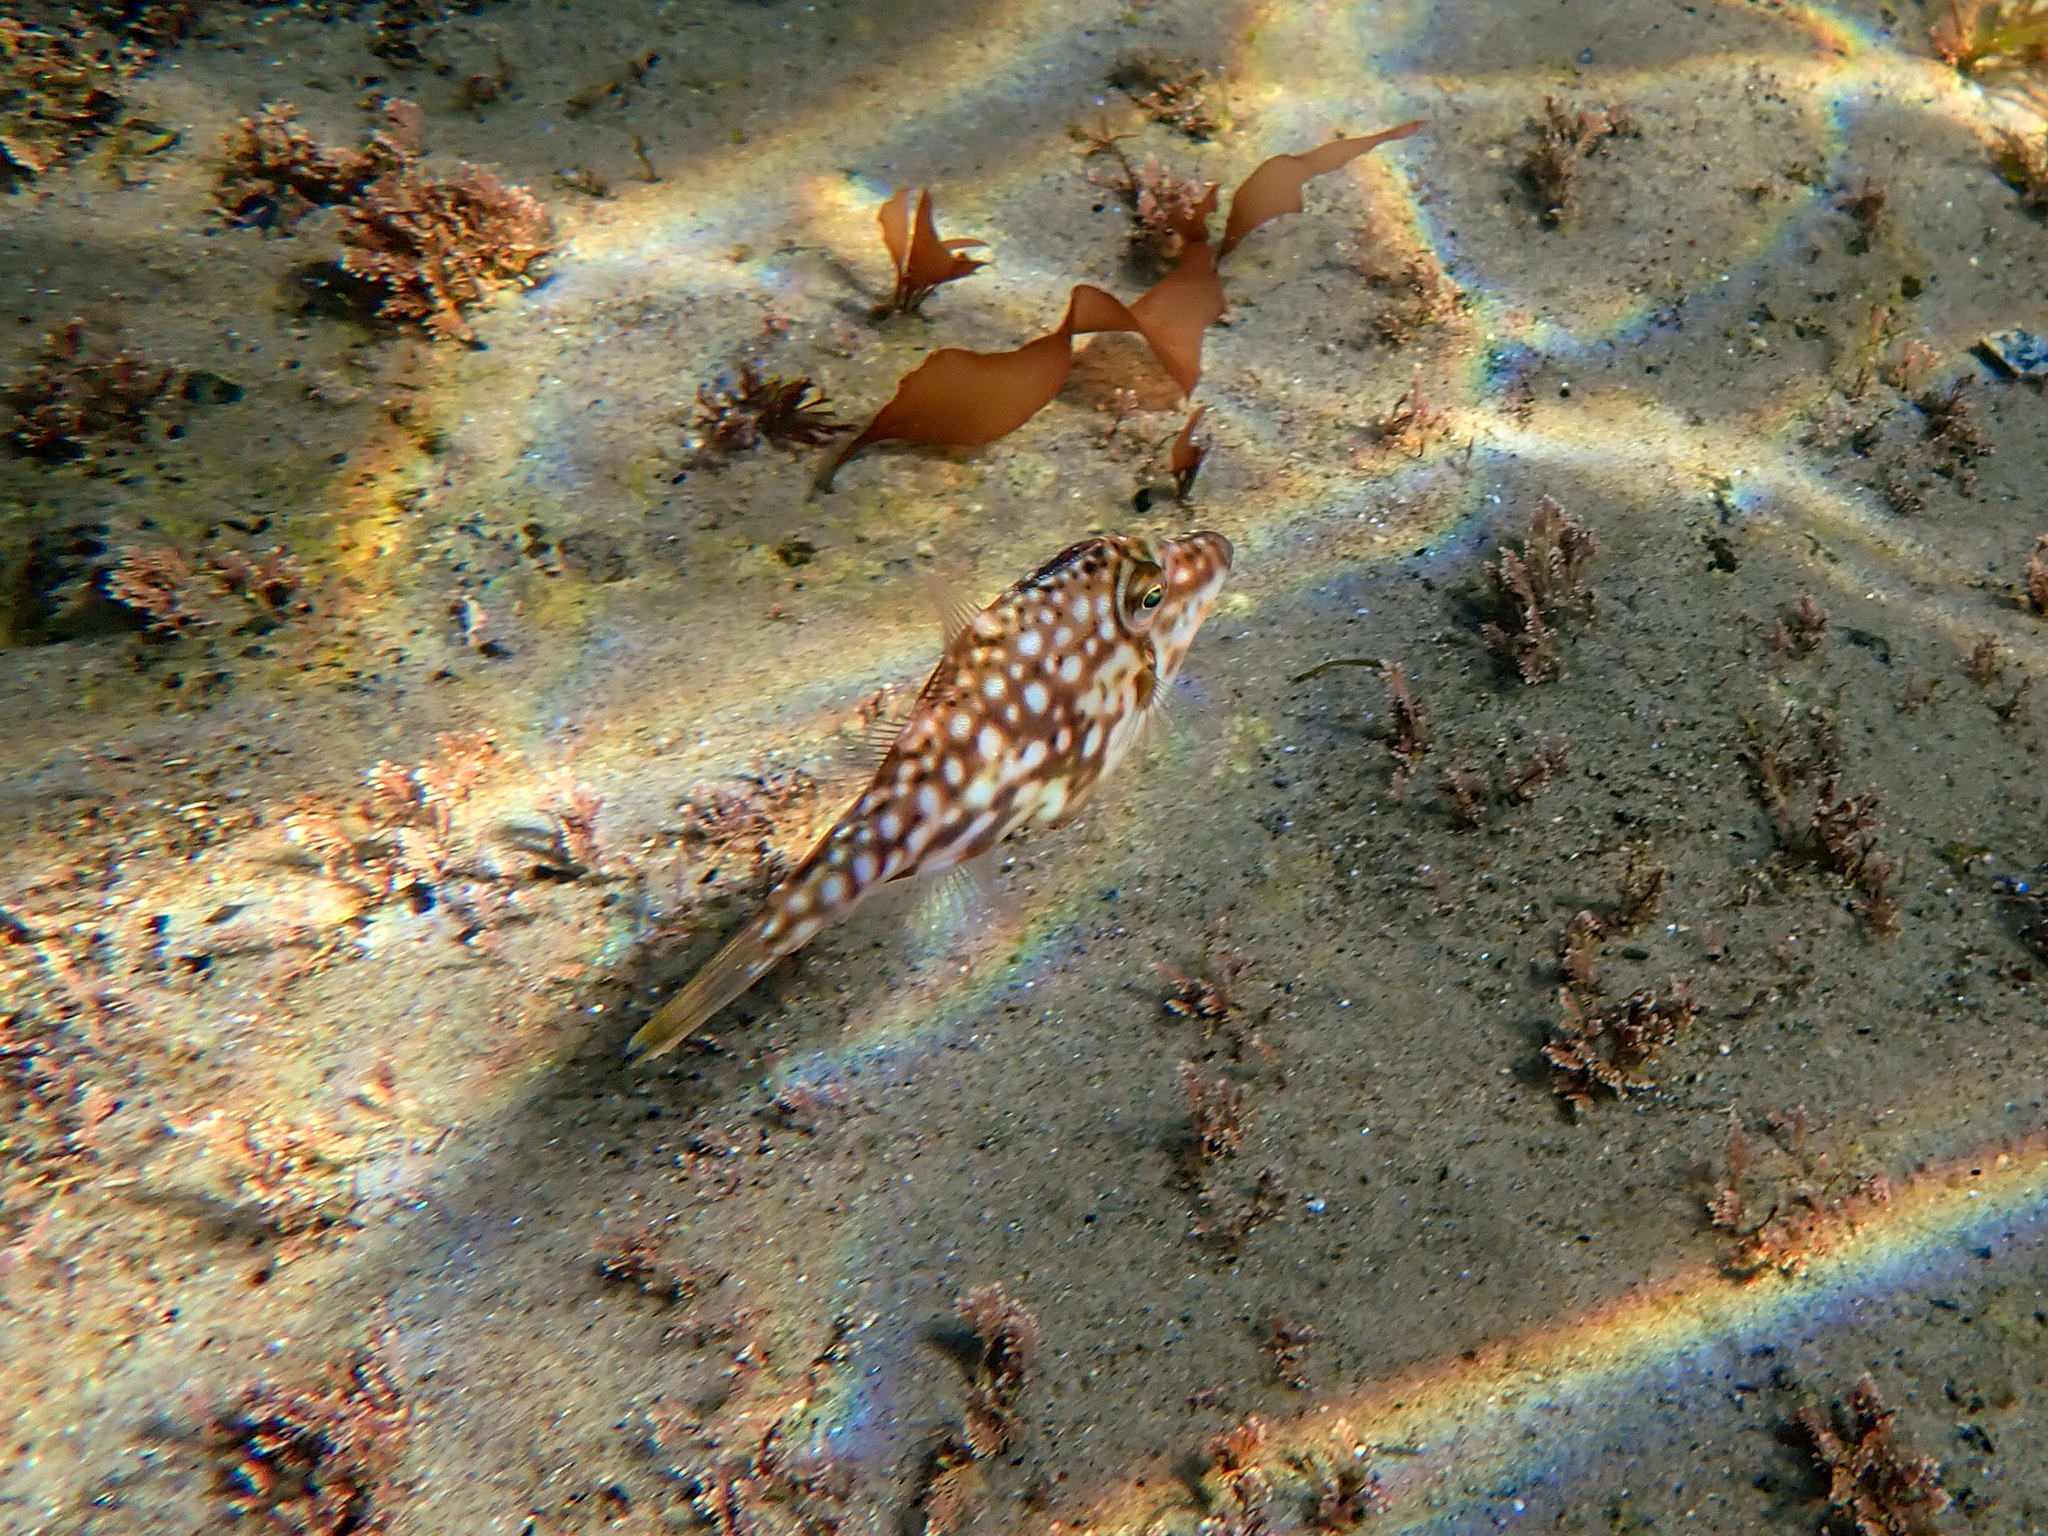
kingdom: Animalia
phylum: Chordata
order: Tetraodontiformes
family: Monacanthidae
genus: Acanthaluteres
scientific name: Acanthaluteres vittiger
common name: Brown leatherjacket
